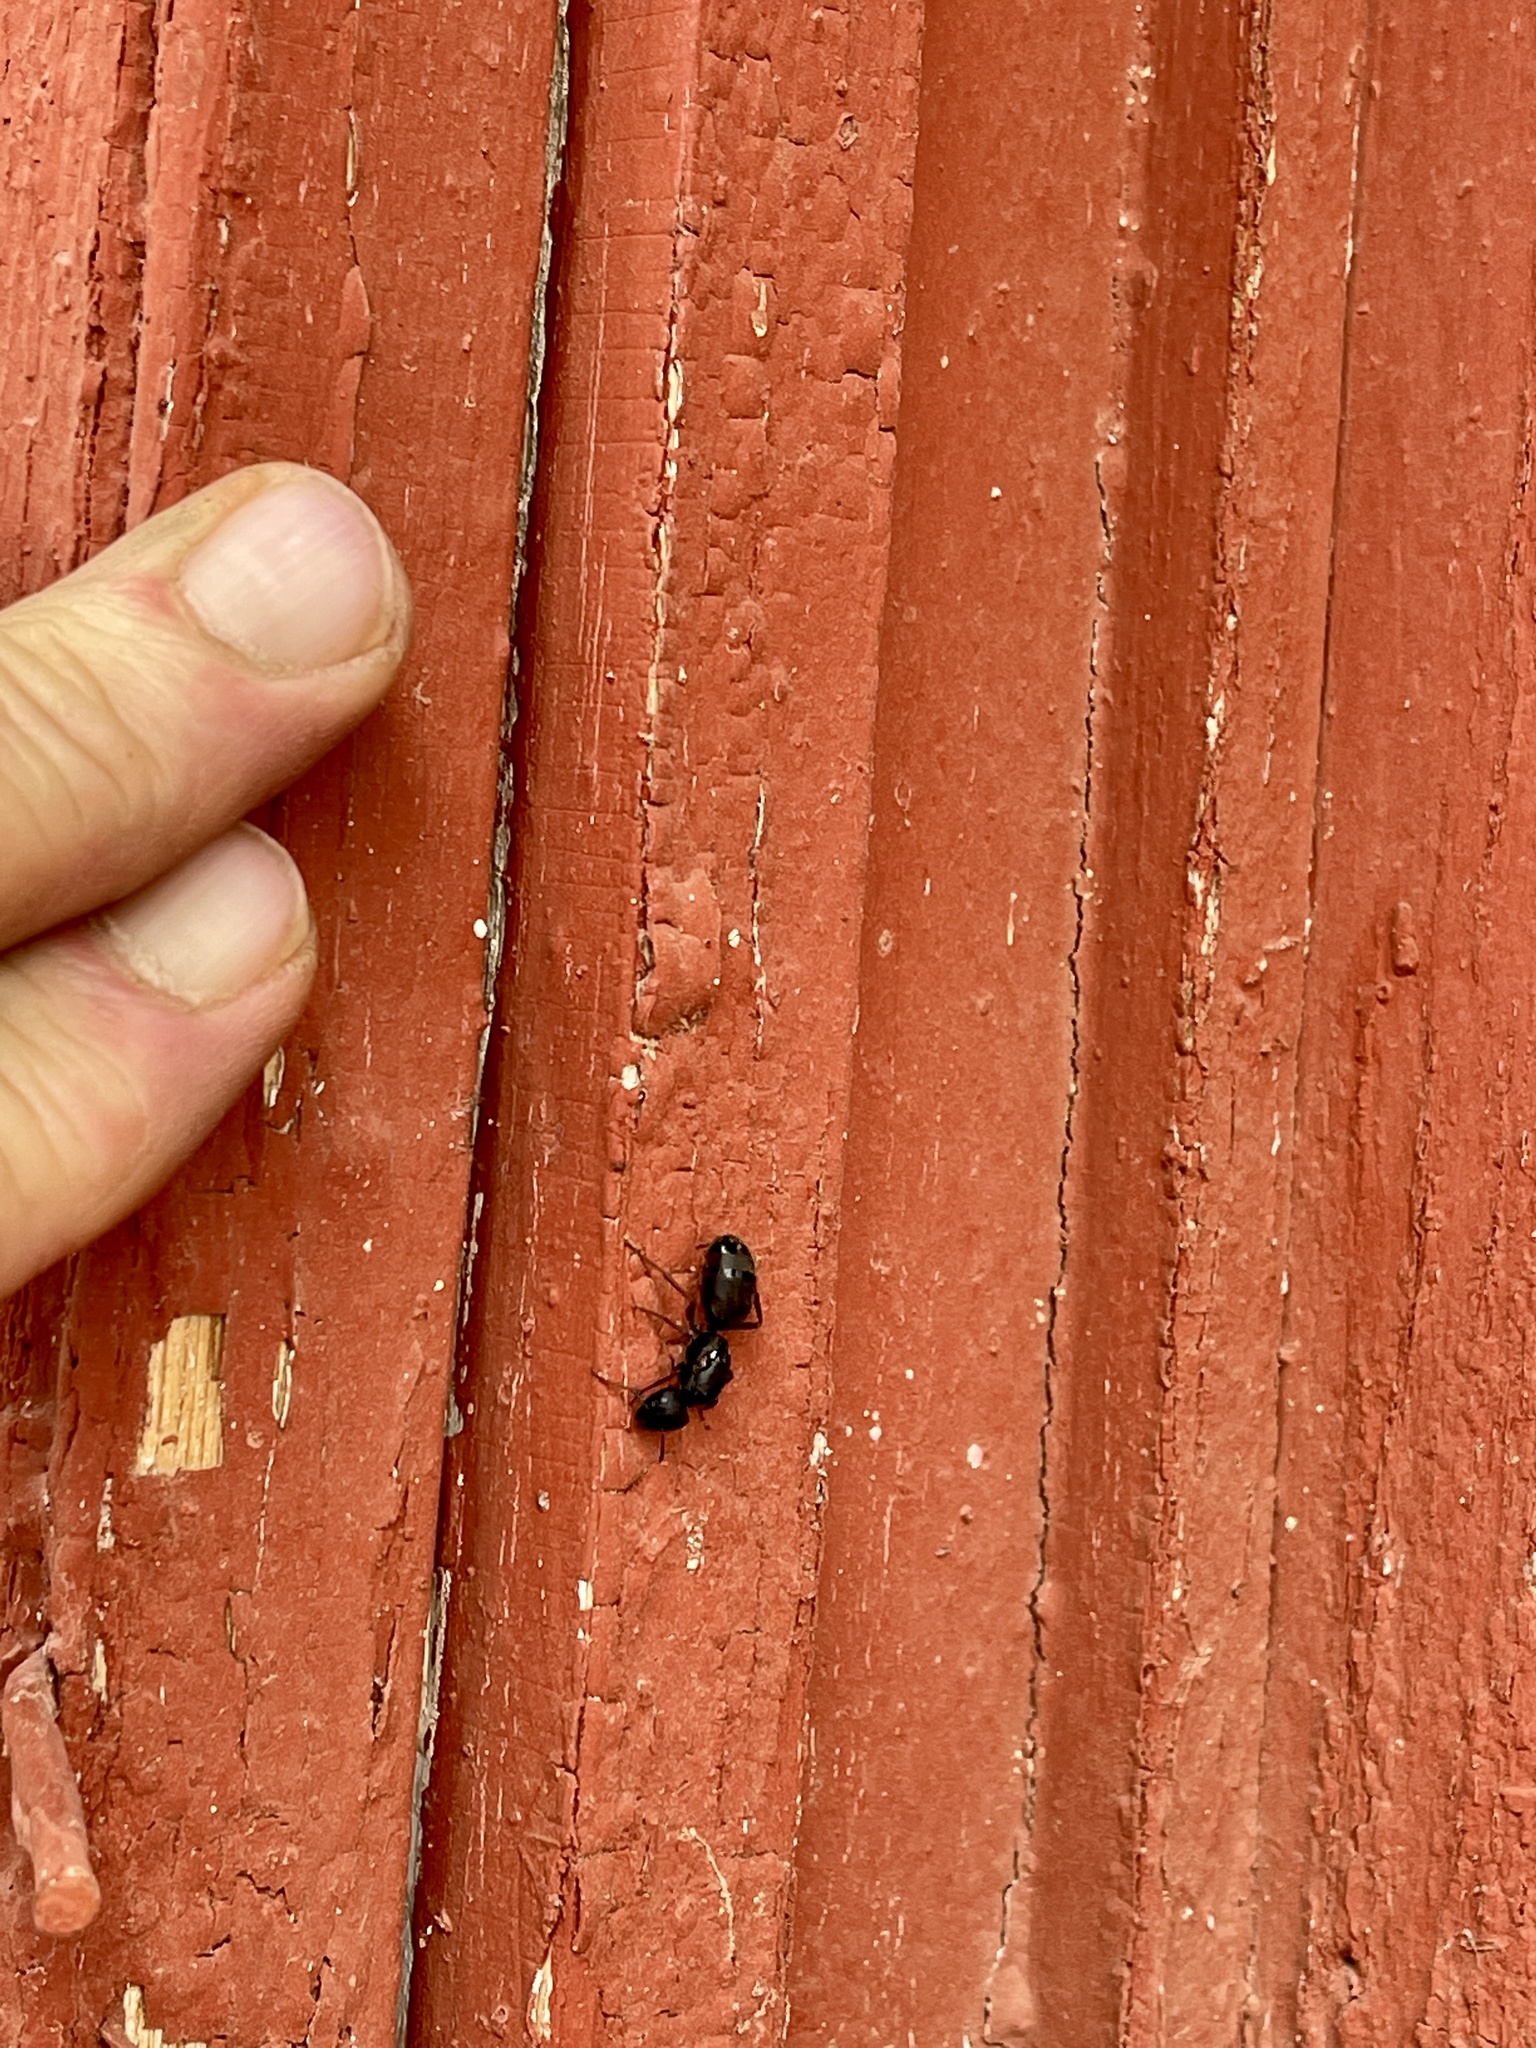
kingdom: Animalia
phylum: Arthropoda
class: Insecta
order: Hymenoptera
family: Formicidae
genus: Camponotus
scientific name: Camponotus modoc
